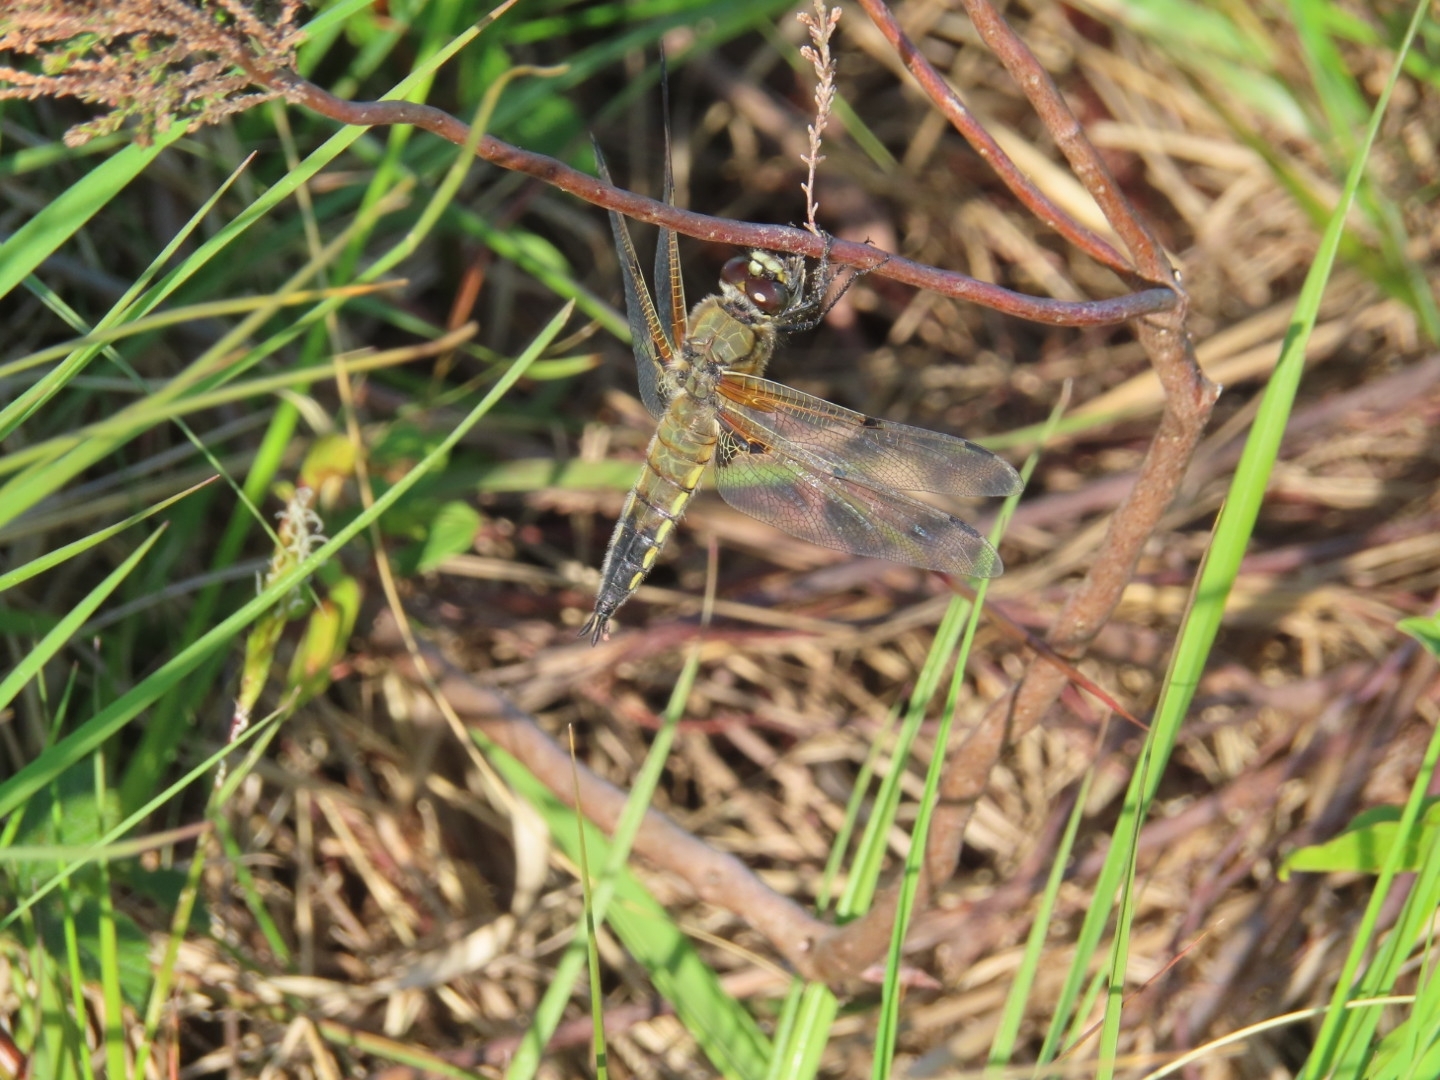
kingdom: Animalia
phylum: Arthropoda
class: Insecta
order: Odonata
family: Libellulidae
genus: Libellula
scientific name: Libellula quadrimaculata
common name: Four-spotted chaser
